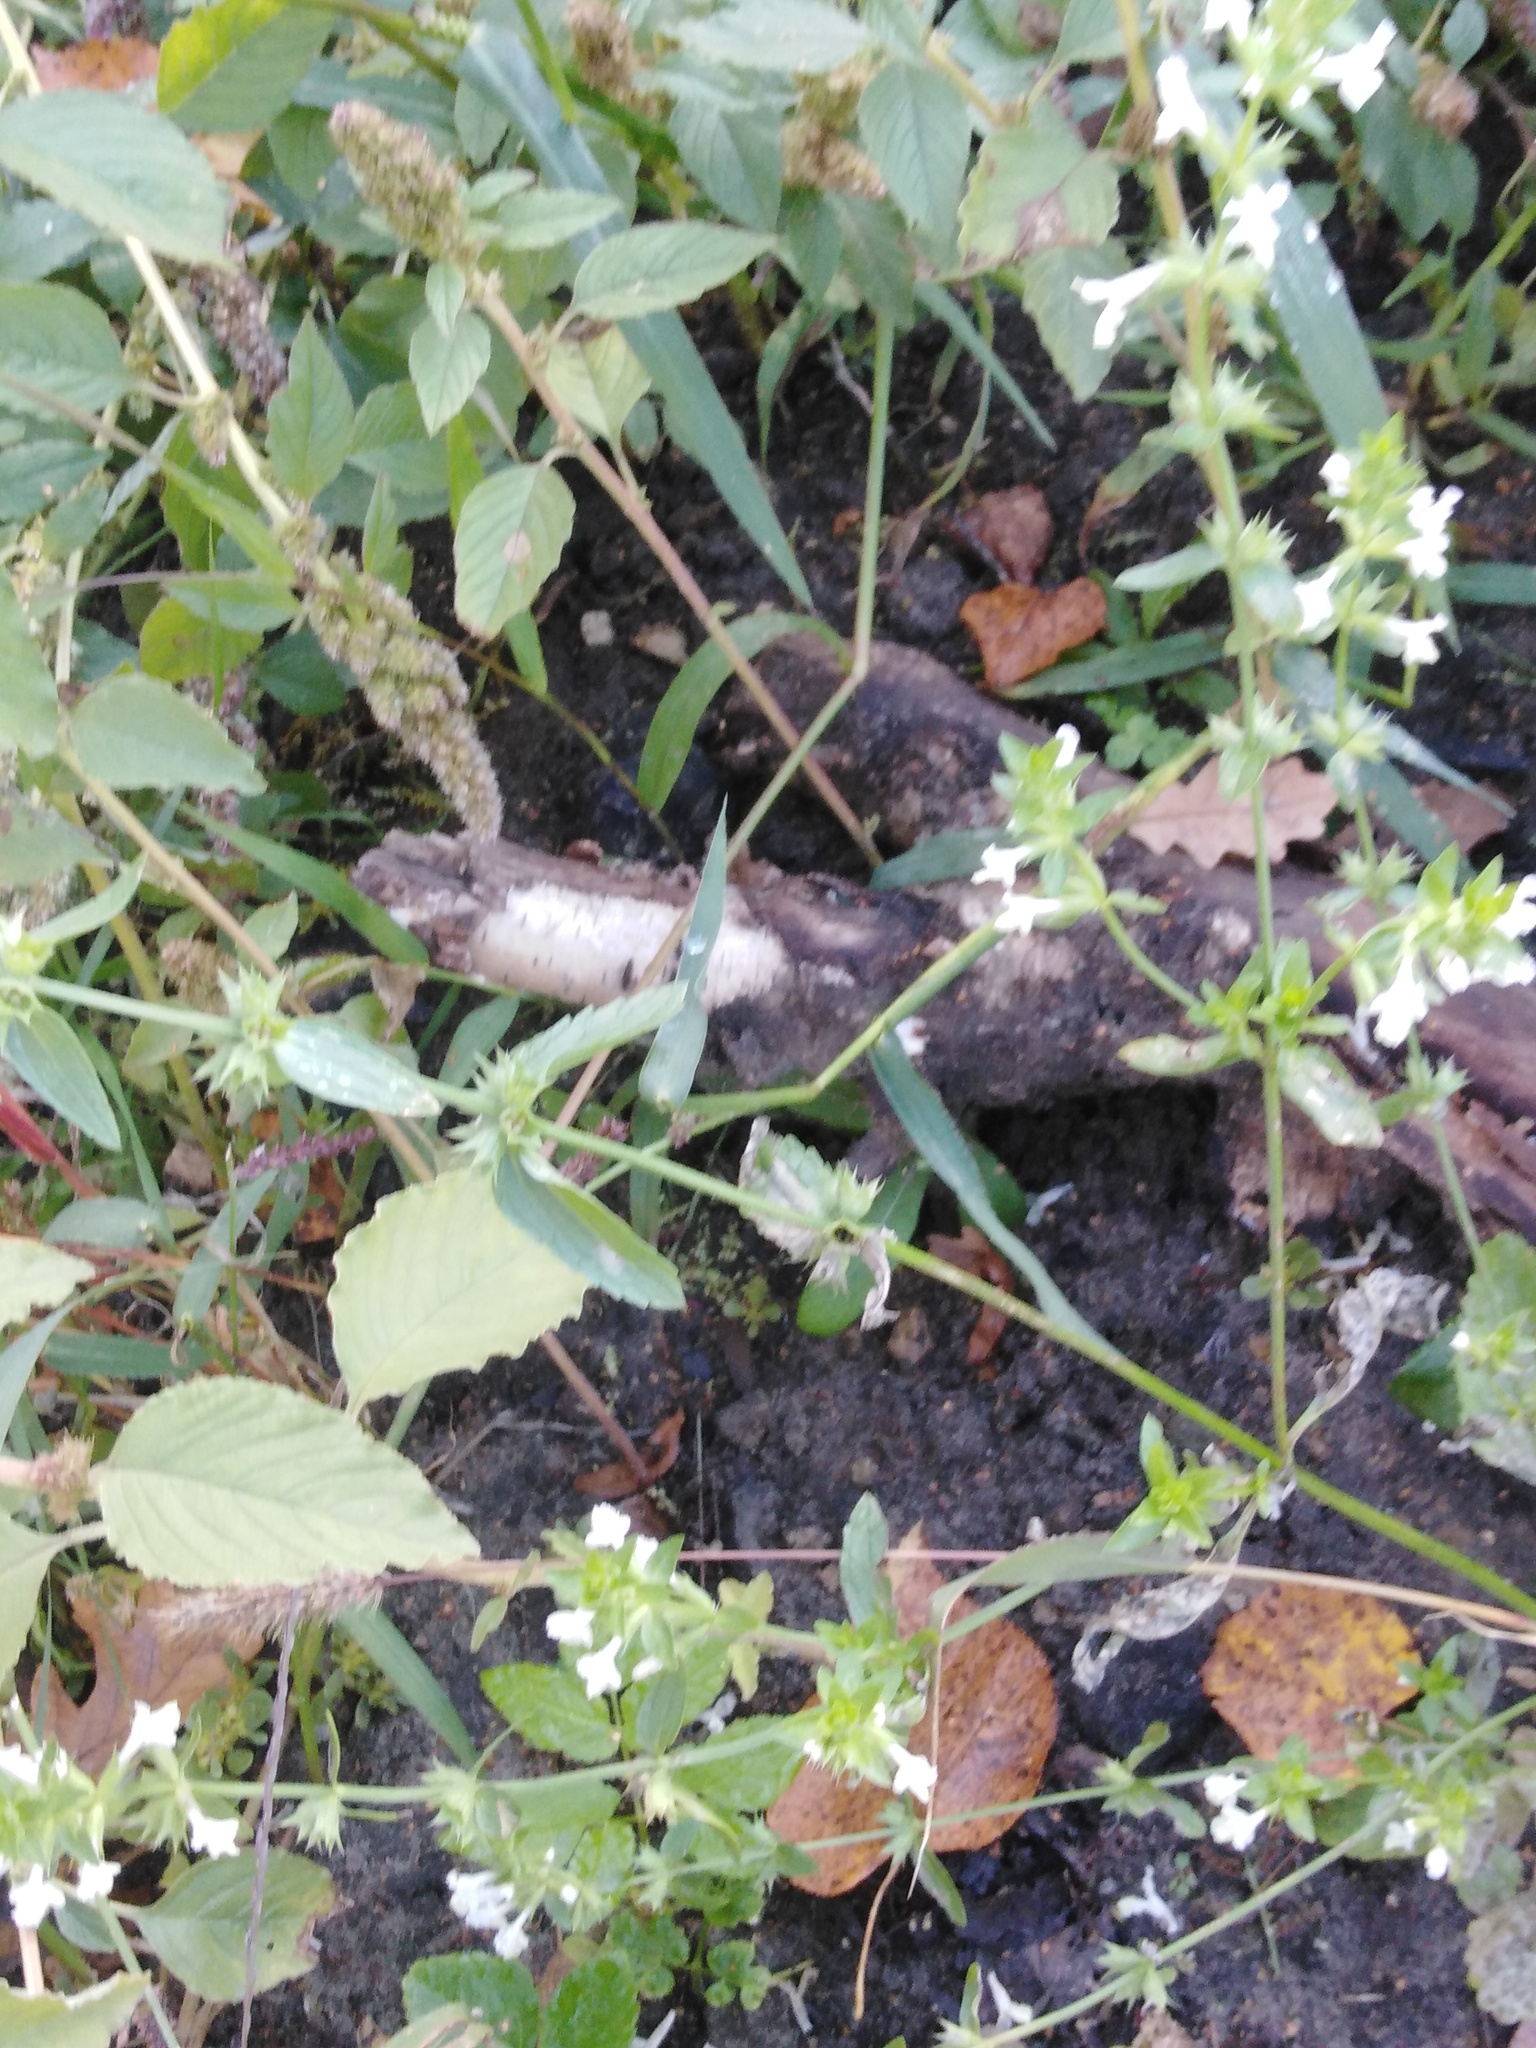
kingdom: Plantae
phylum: Tracheophyta
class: Magnoliopsida
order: Lamiales
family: Lamiaceae
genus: Stachys
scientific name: Stachys annua
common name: Annual yellow-woundwort
